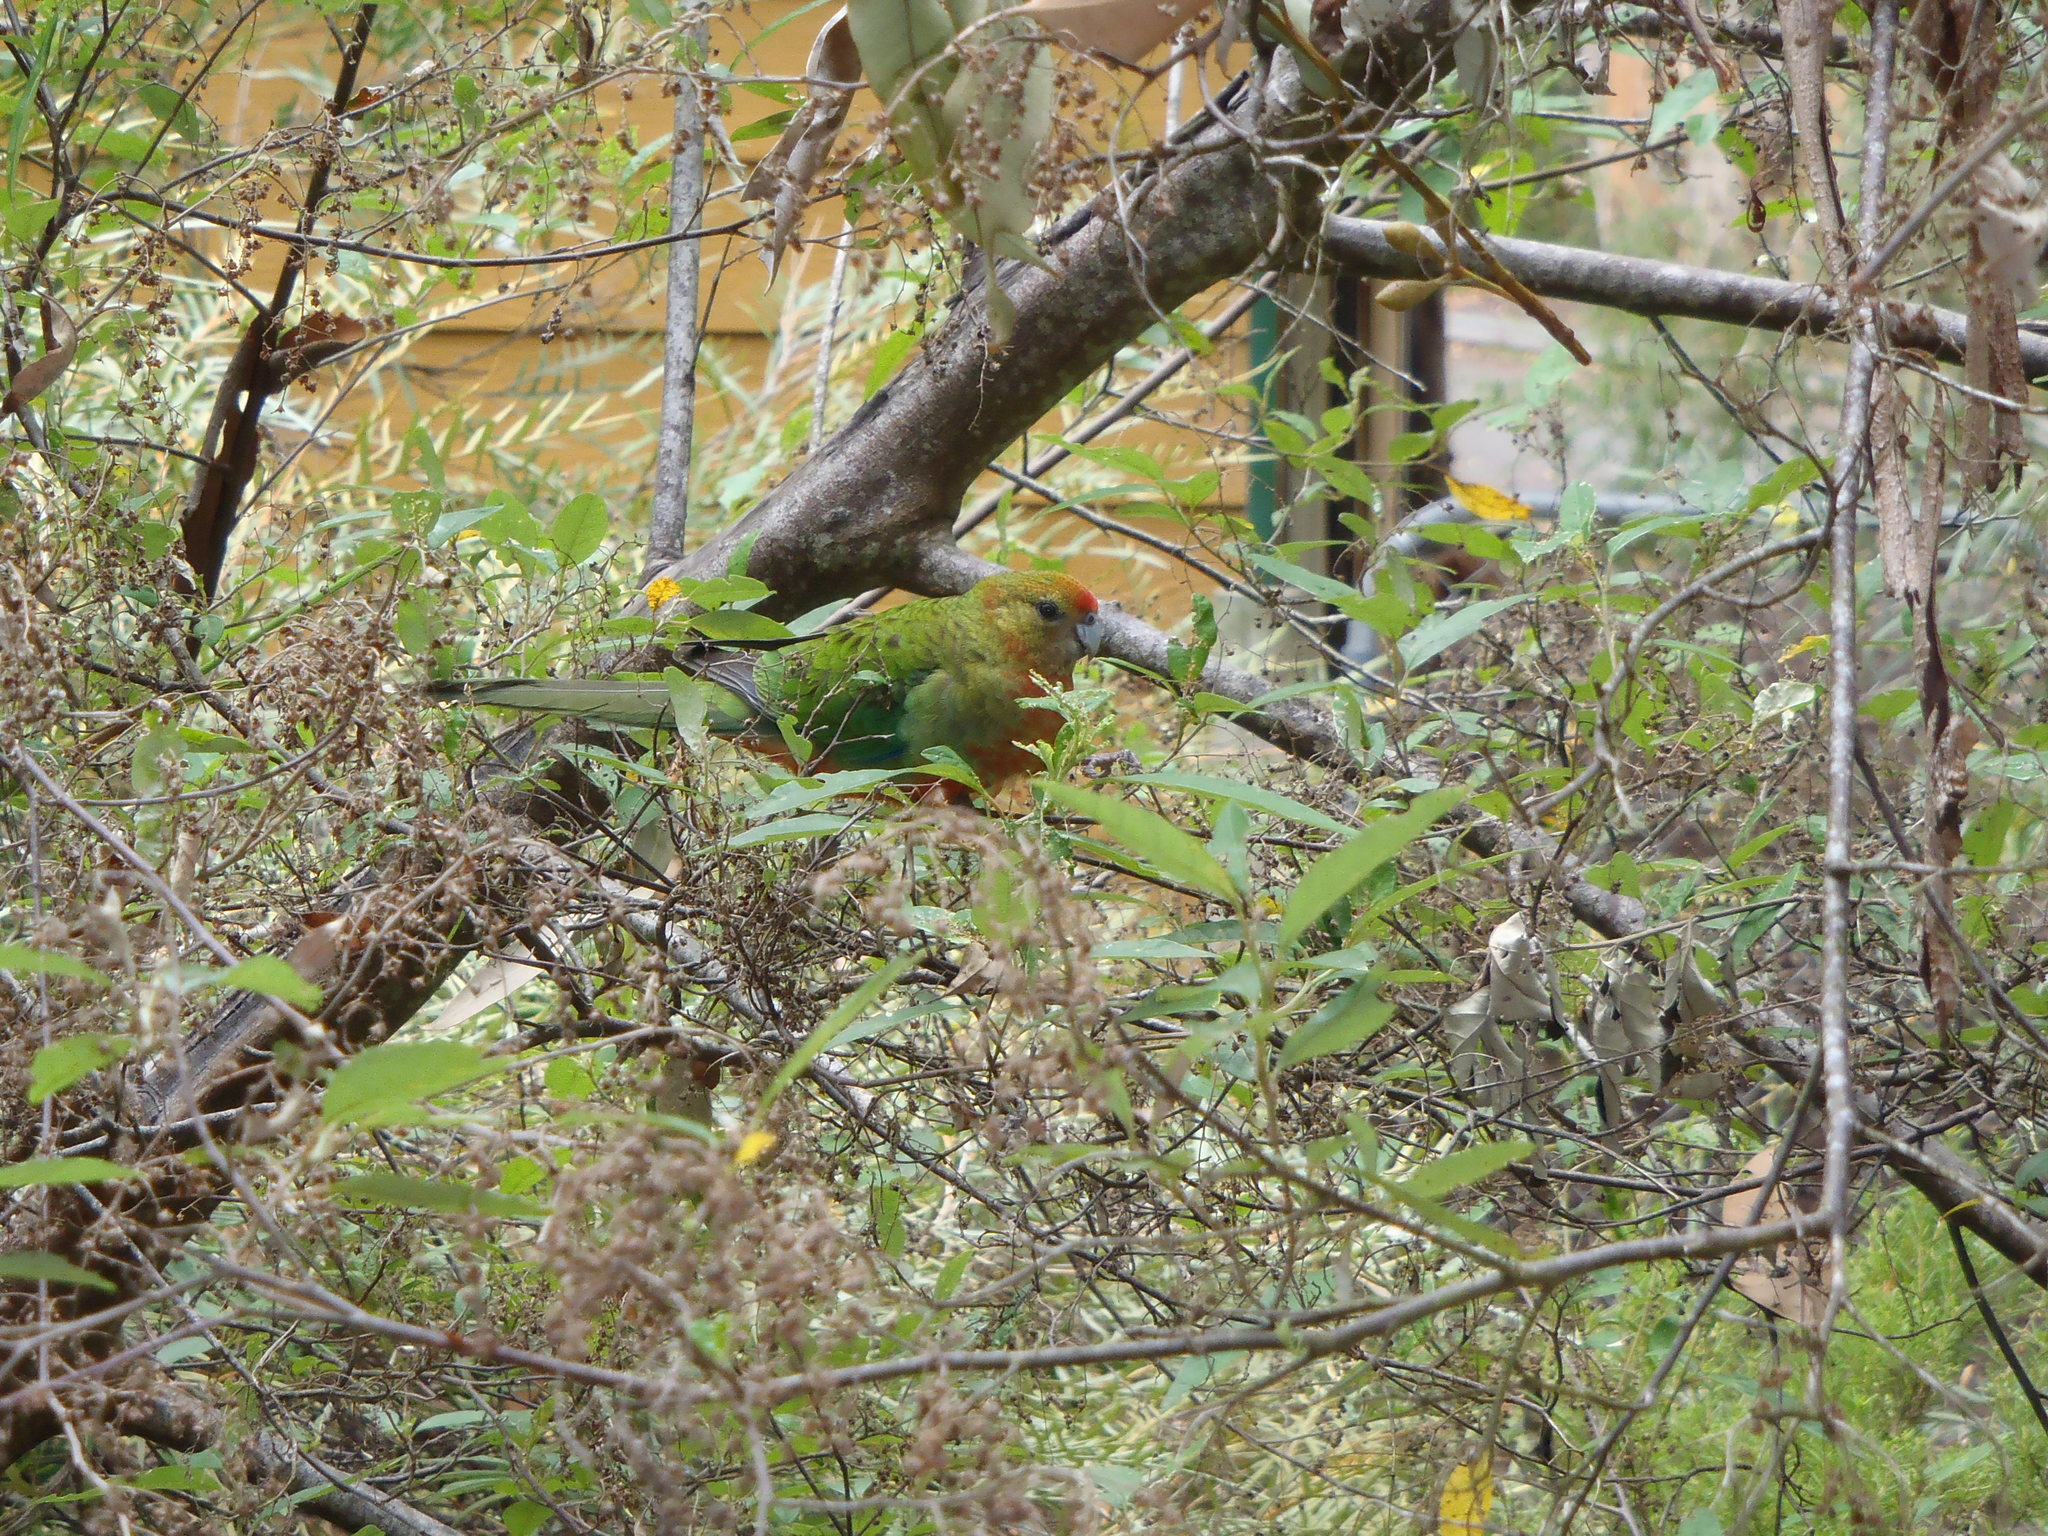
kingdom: Animalia
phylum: Chordata
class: Aves
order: Psittaciformes
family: Psittacidae
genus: Platycercus
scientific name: Platycercus icterotis
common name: Western rosella
